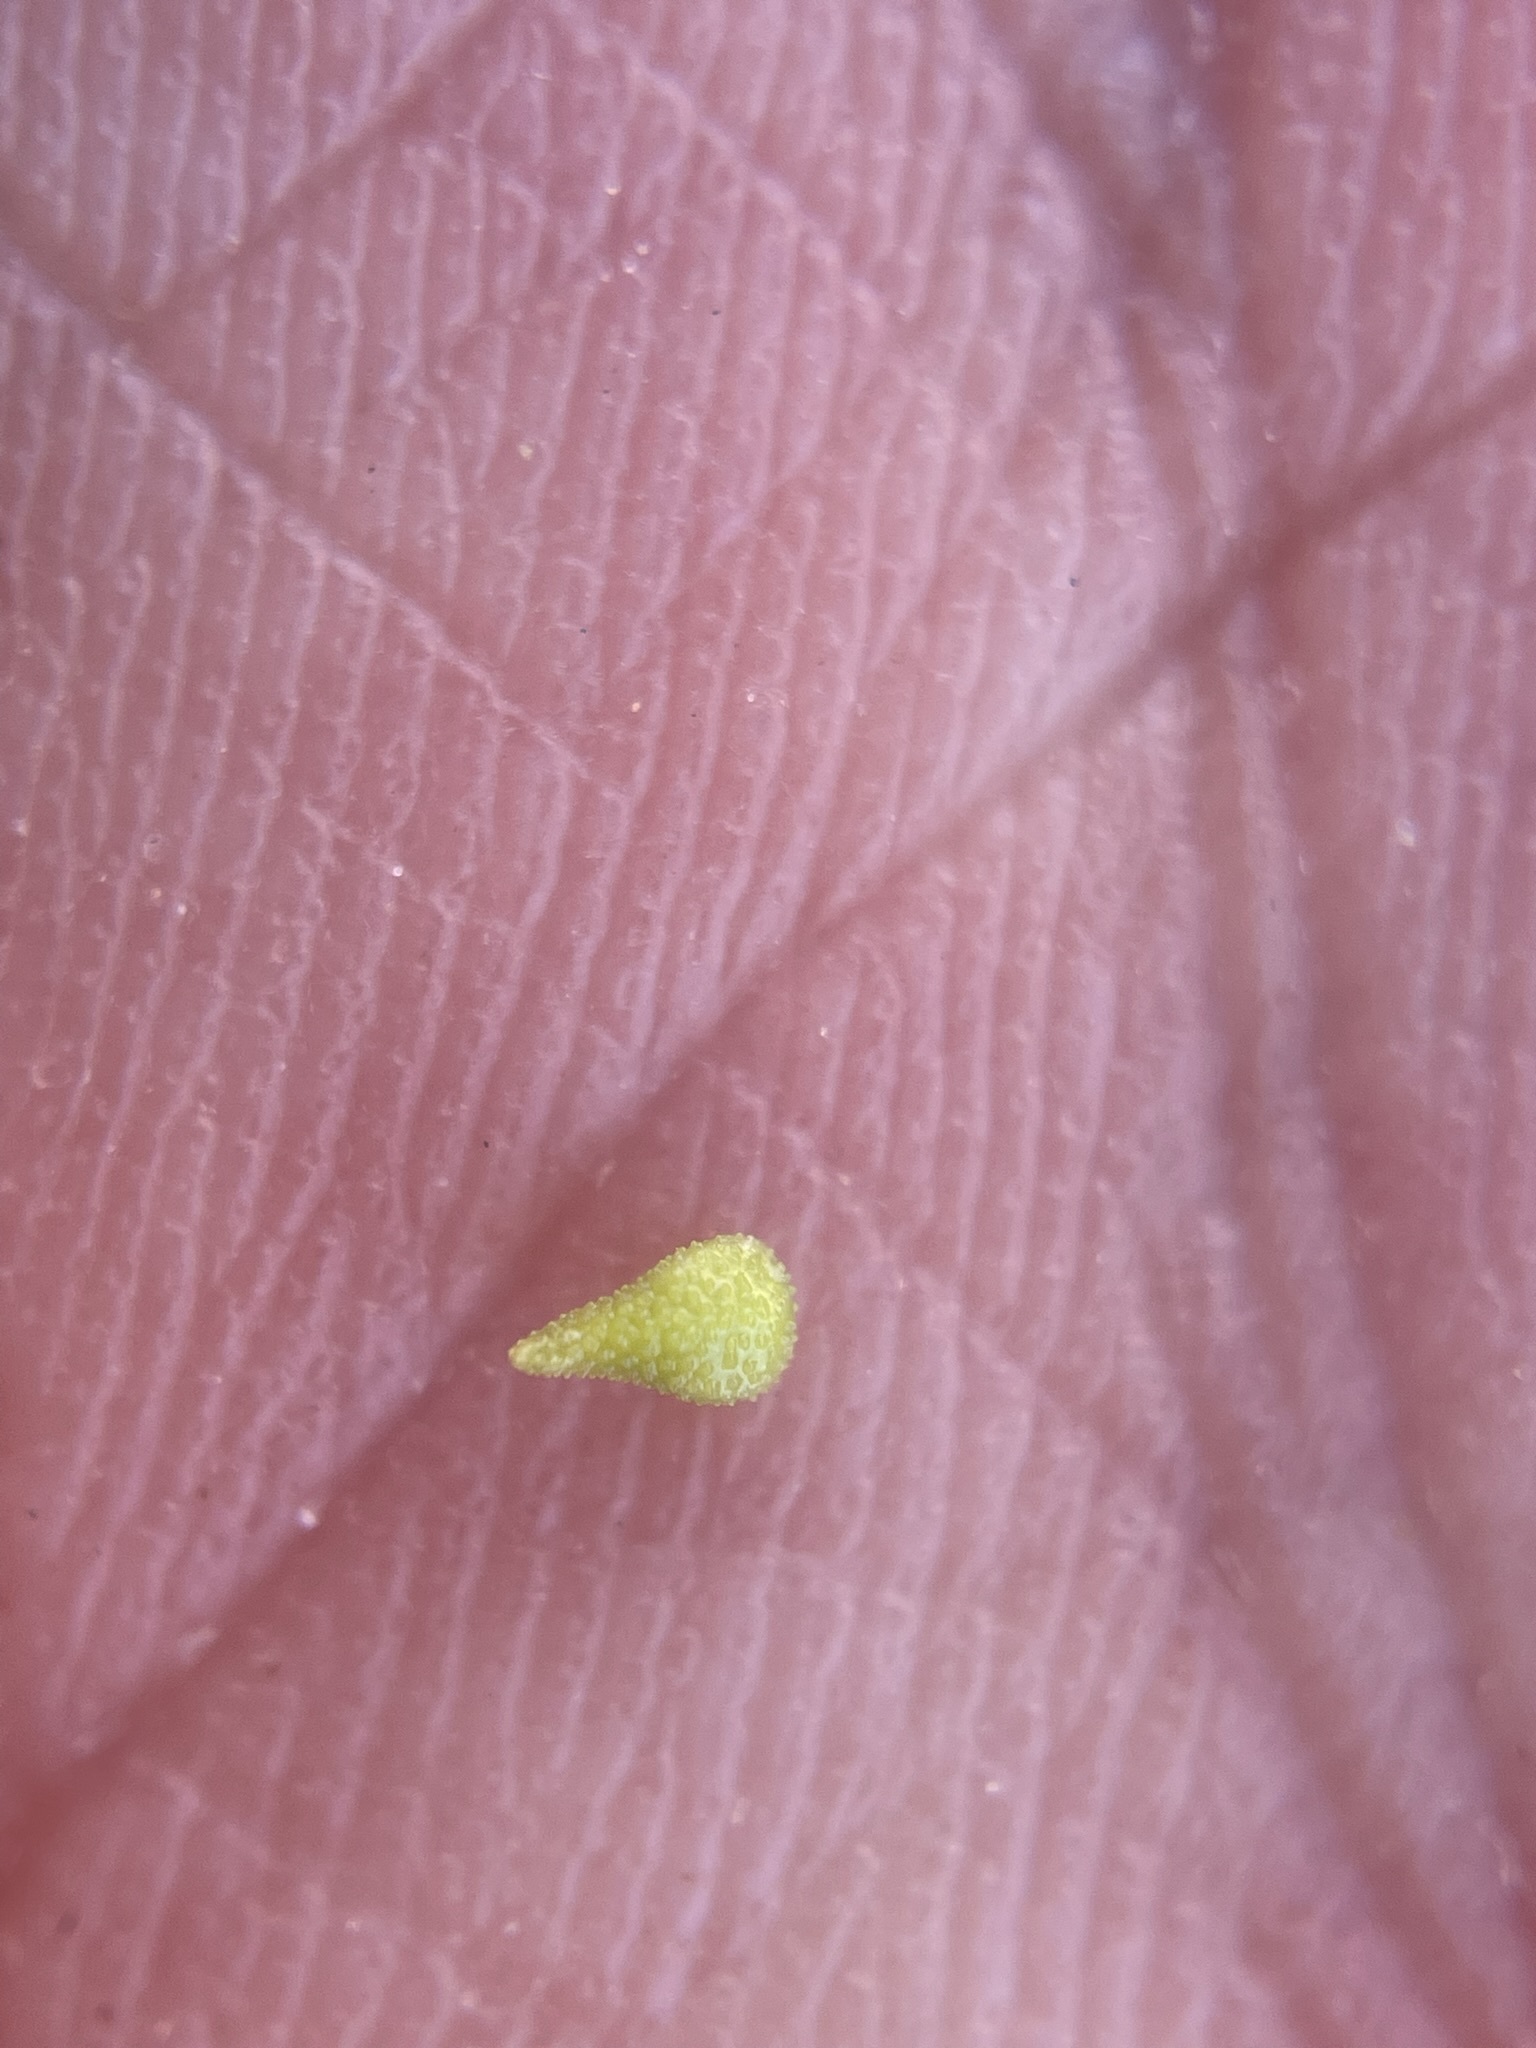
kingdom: Plantae
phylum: Tracheophyta
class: Magnoliopsida
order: Boraginales
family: Boraginaceae
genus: Cryptantha
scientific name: Cryptantha barbigera
